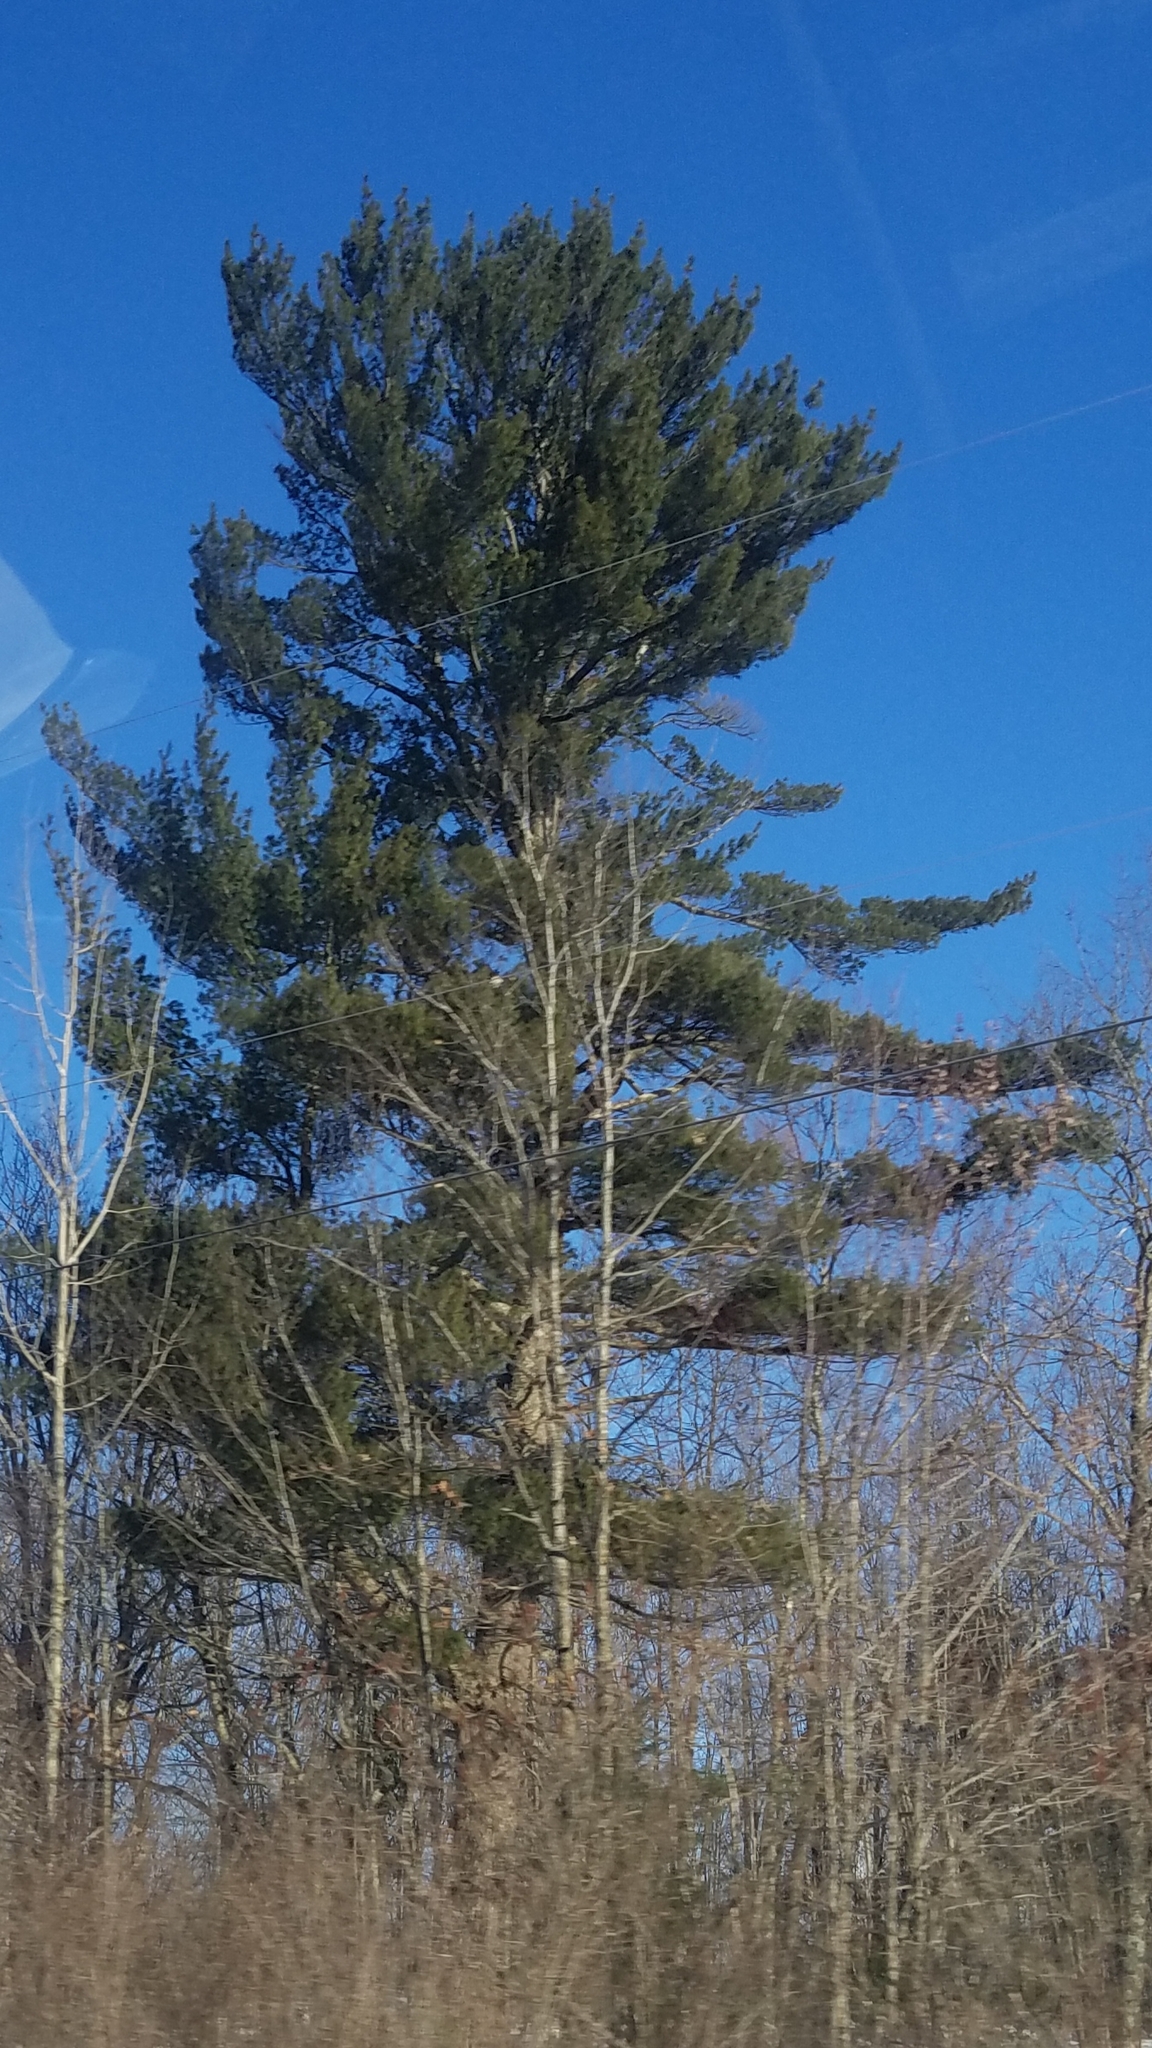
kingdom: Plantae
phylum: Tracheophyta
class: Pinopsida
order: Pinales
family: Pinaceae
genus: Pinus
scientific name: Pinus strobus
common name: Weymouth pine
